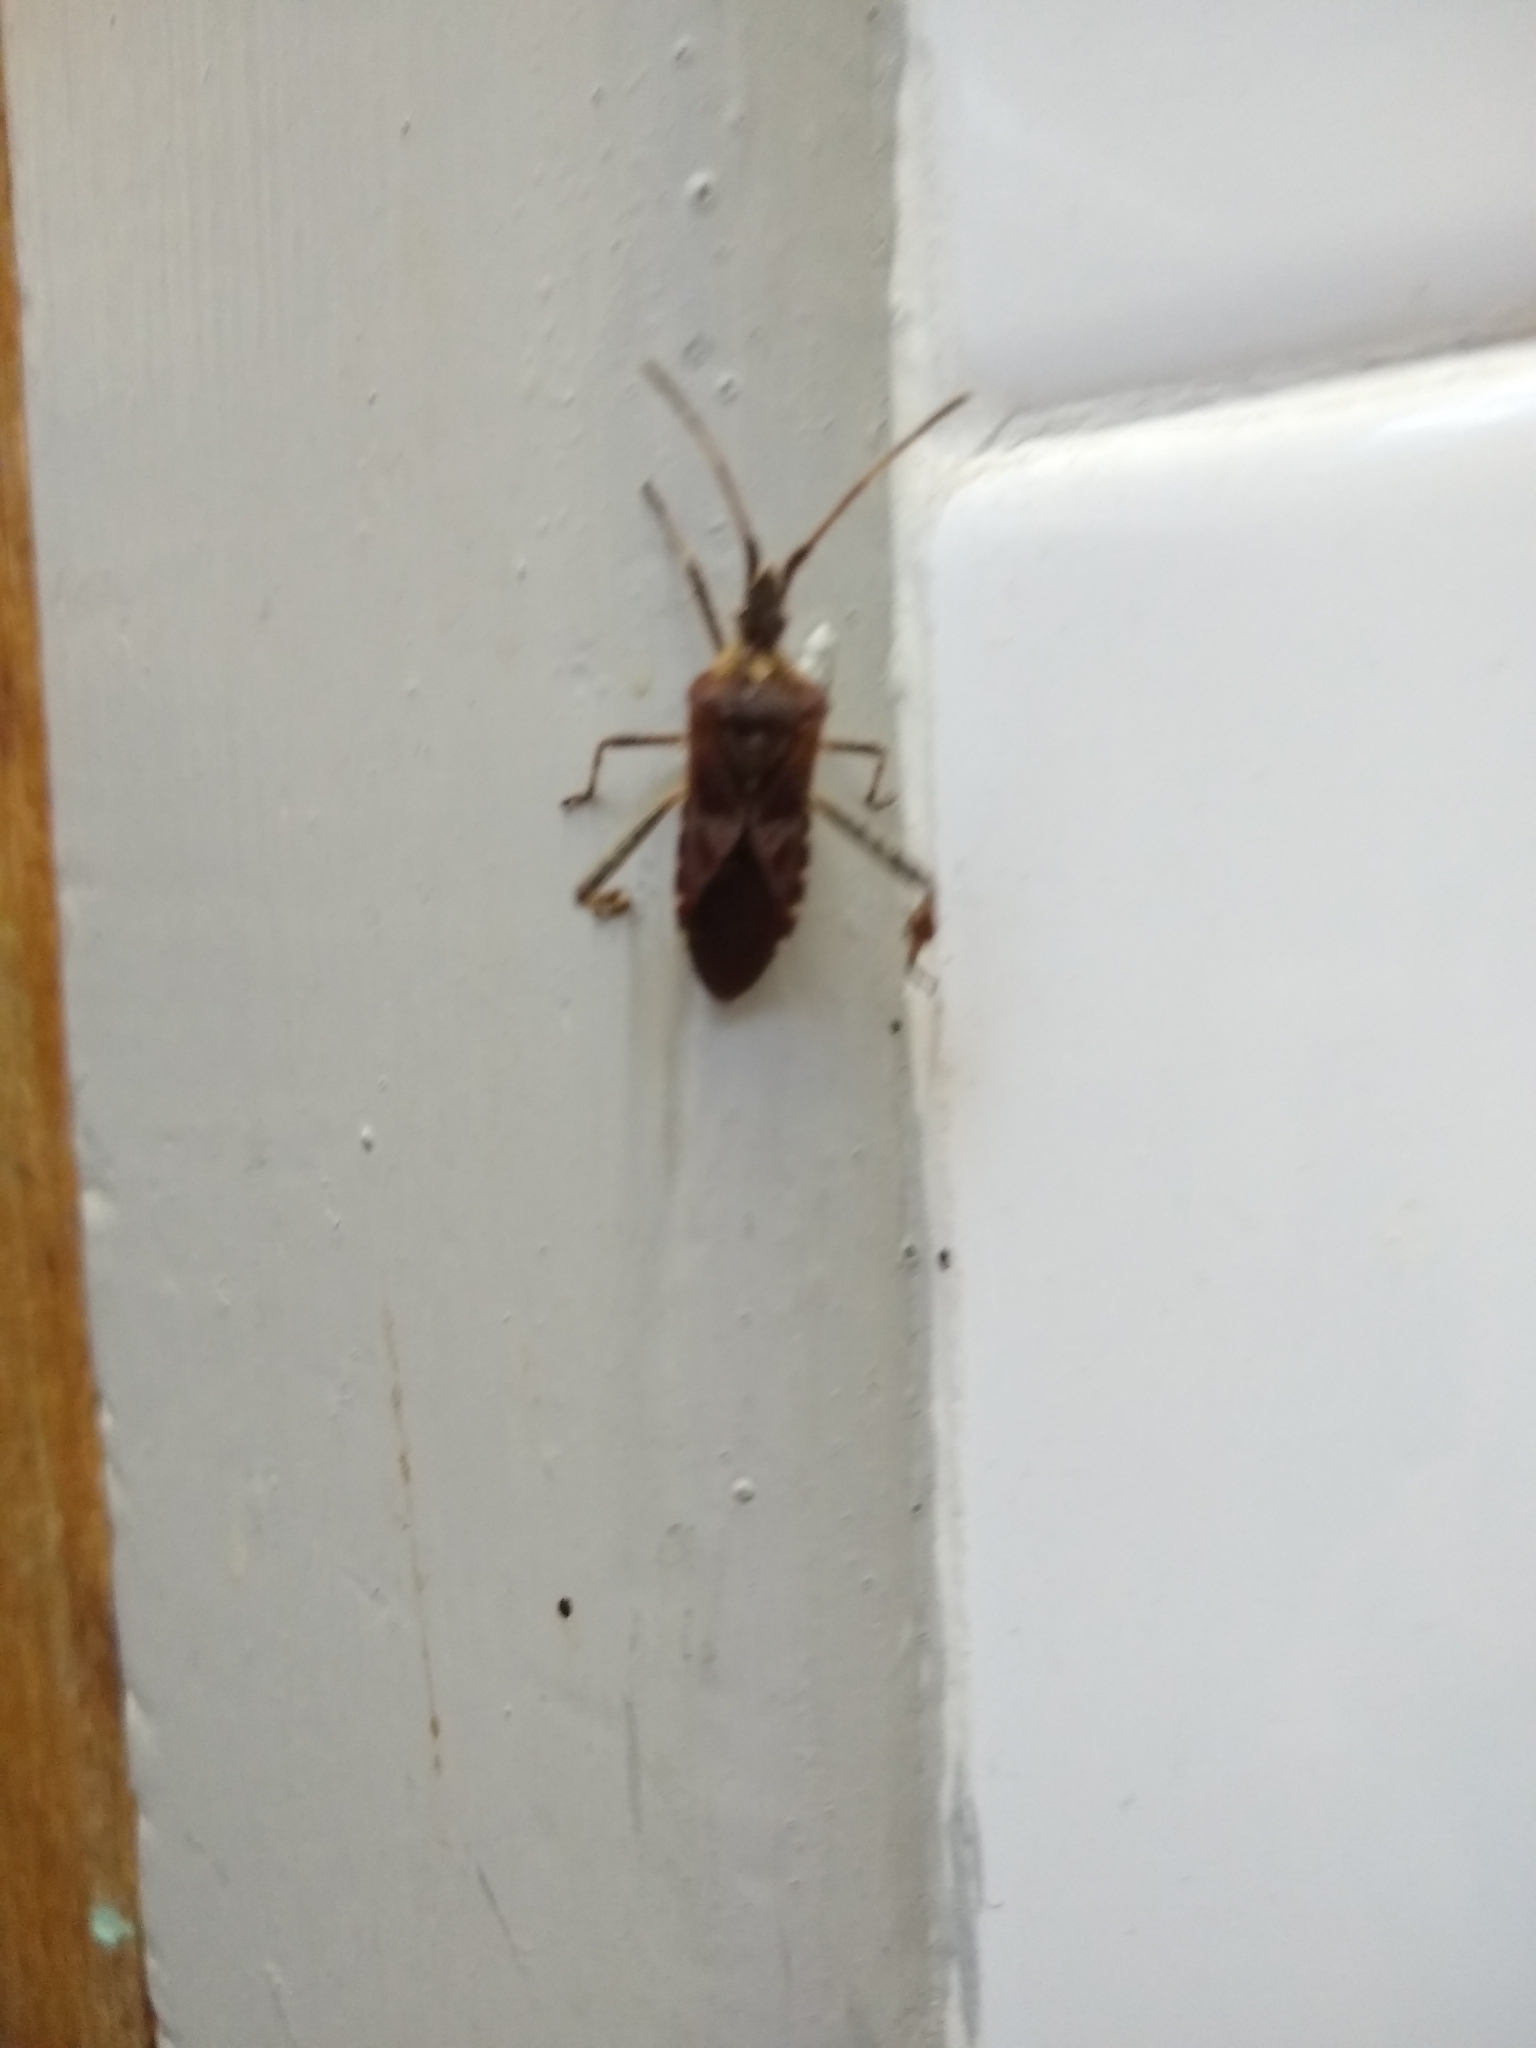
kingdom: Animalia
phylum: Arthropoda
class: Insecta
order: Hemiptera
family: Coreidae
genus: Leptoglossus
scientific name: Leptoglossus occidentalis
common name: Western conifer-seed bug
